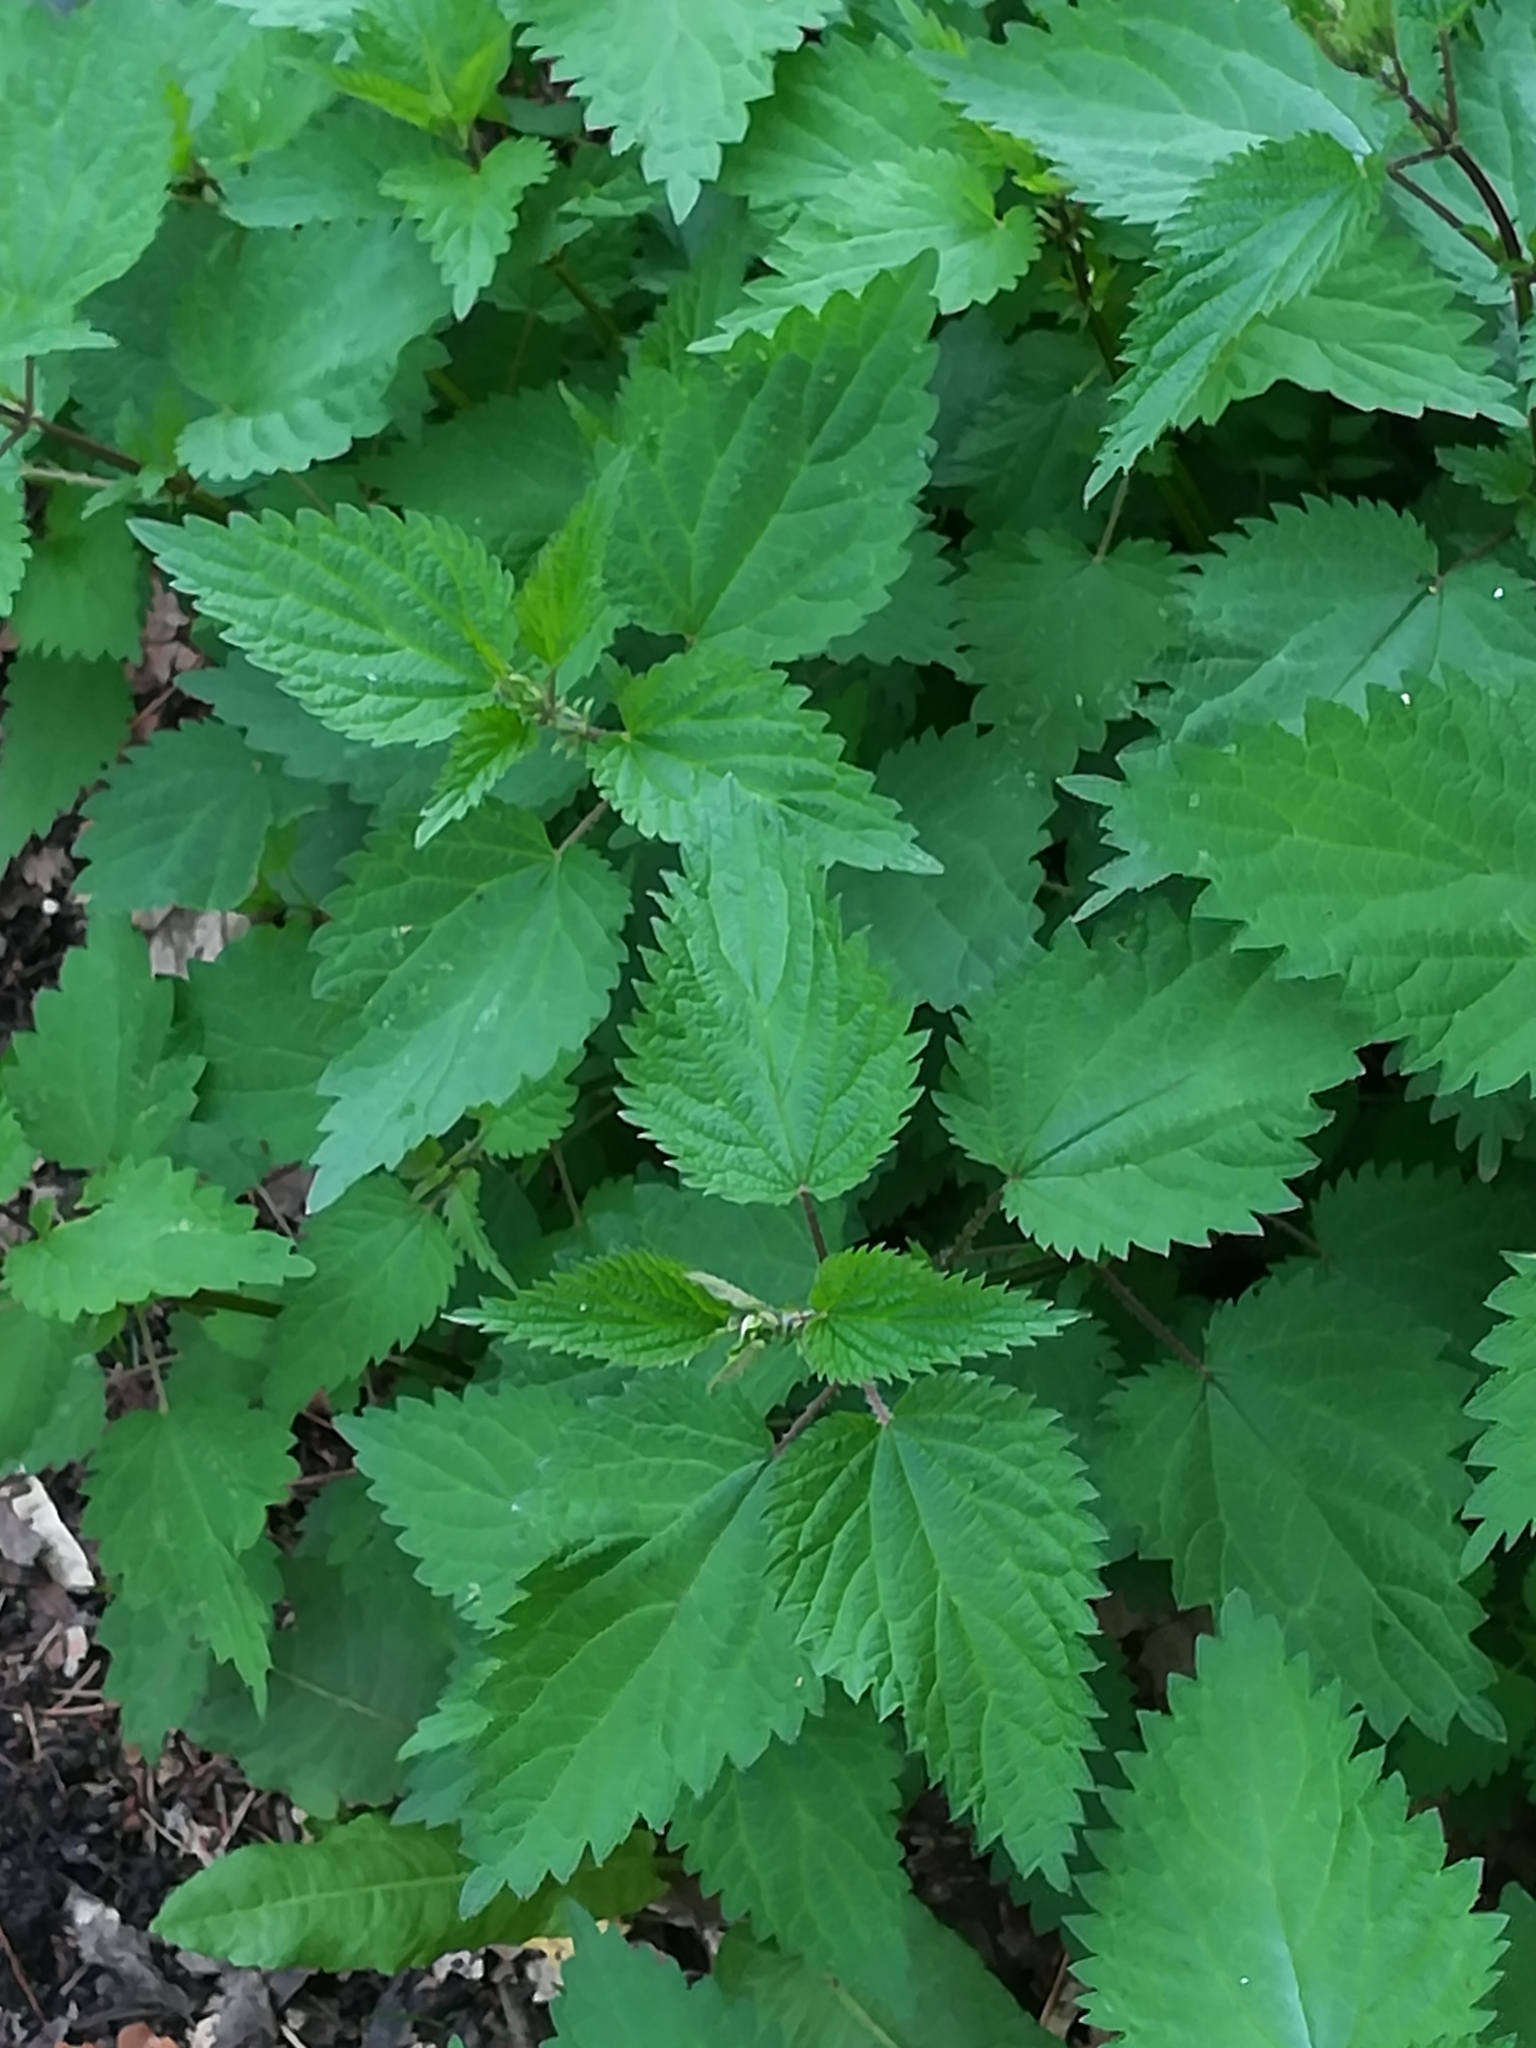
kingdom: Plantae
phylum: Tracheophyta
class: Magnoliopsida
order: Rosales
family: Urticaceae
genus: Urtica
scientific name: Urtica dioica
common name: Common nettle
